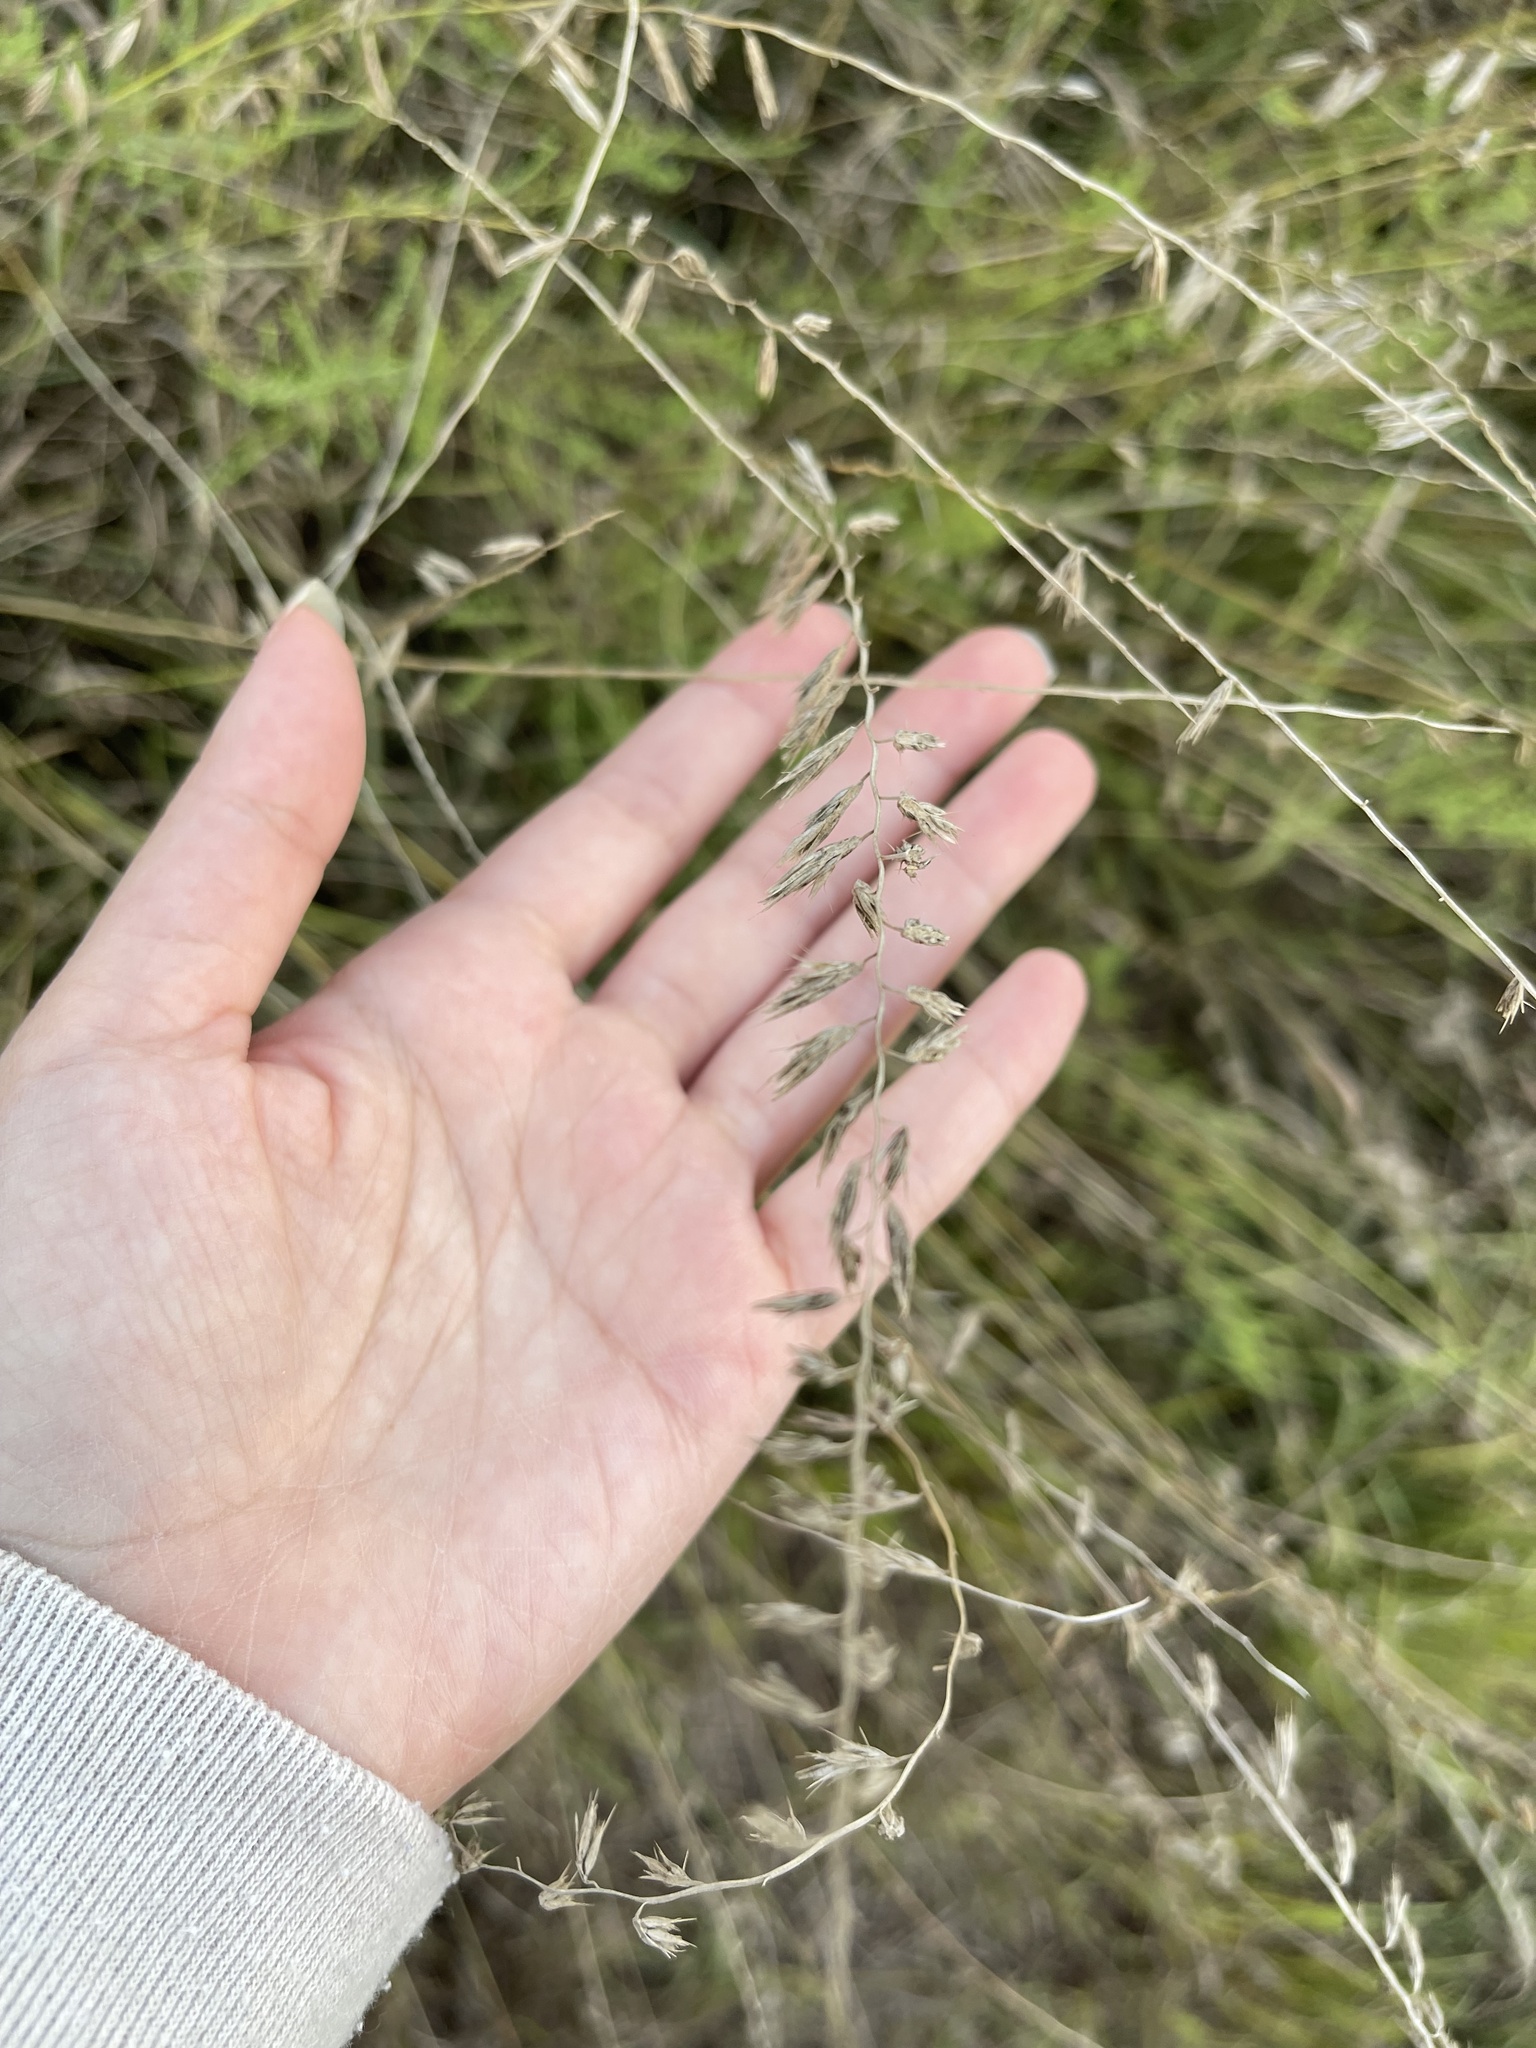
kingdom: Plantae
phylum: Tracheophyta
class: Liliopsida
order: Poales
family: Poaceae
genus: Bouteloua
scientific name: Bouteloua curtipendula
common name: Side-oats grama
